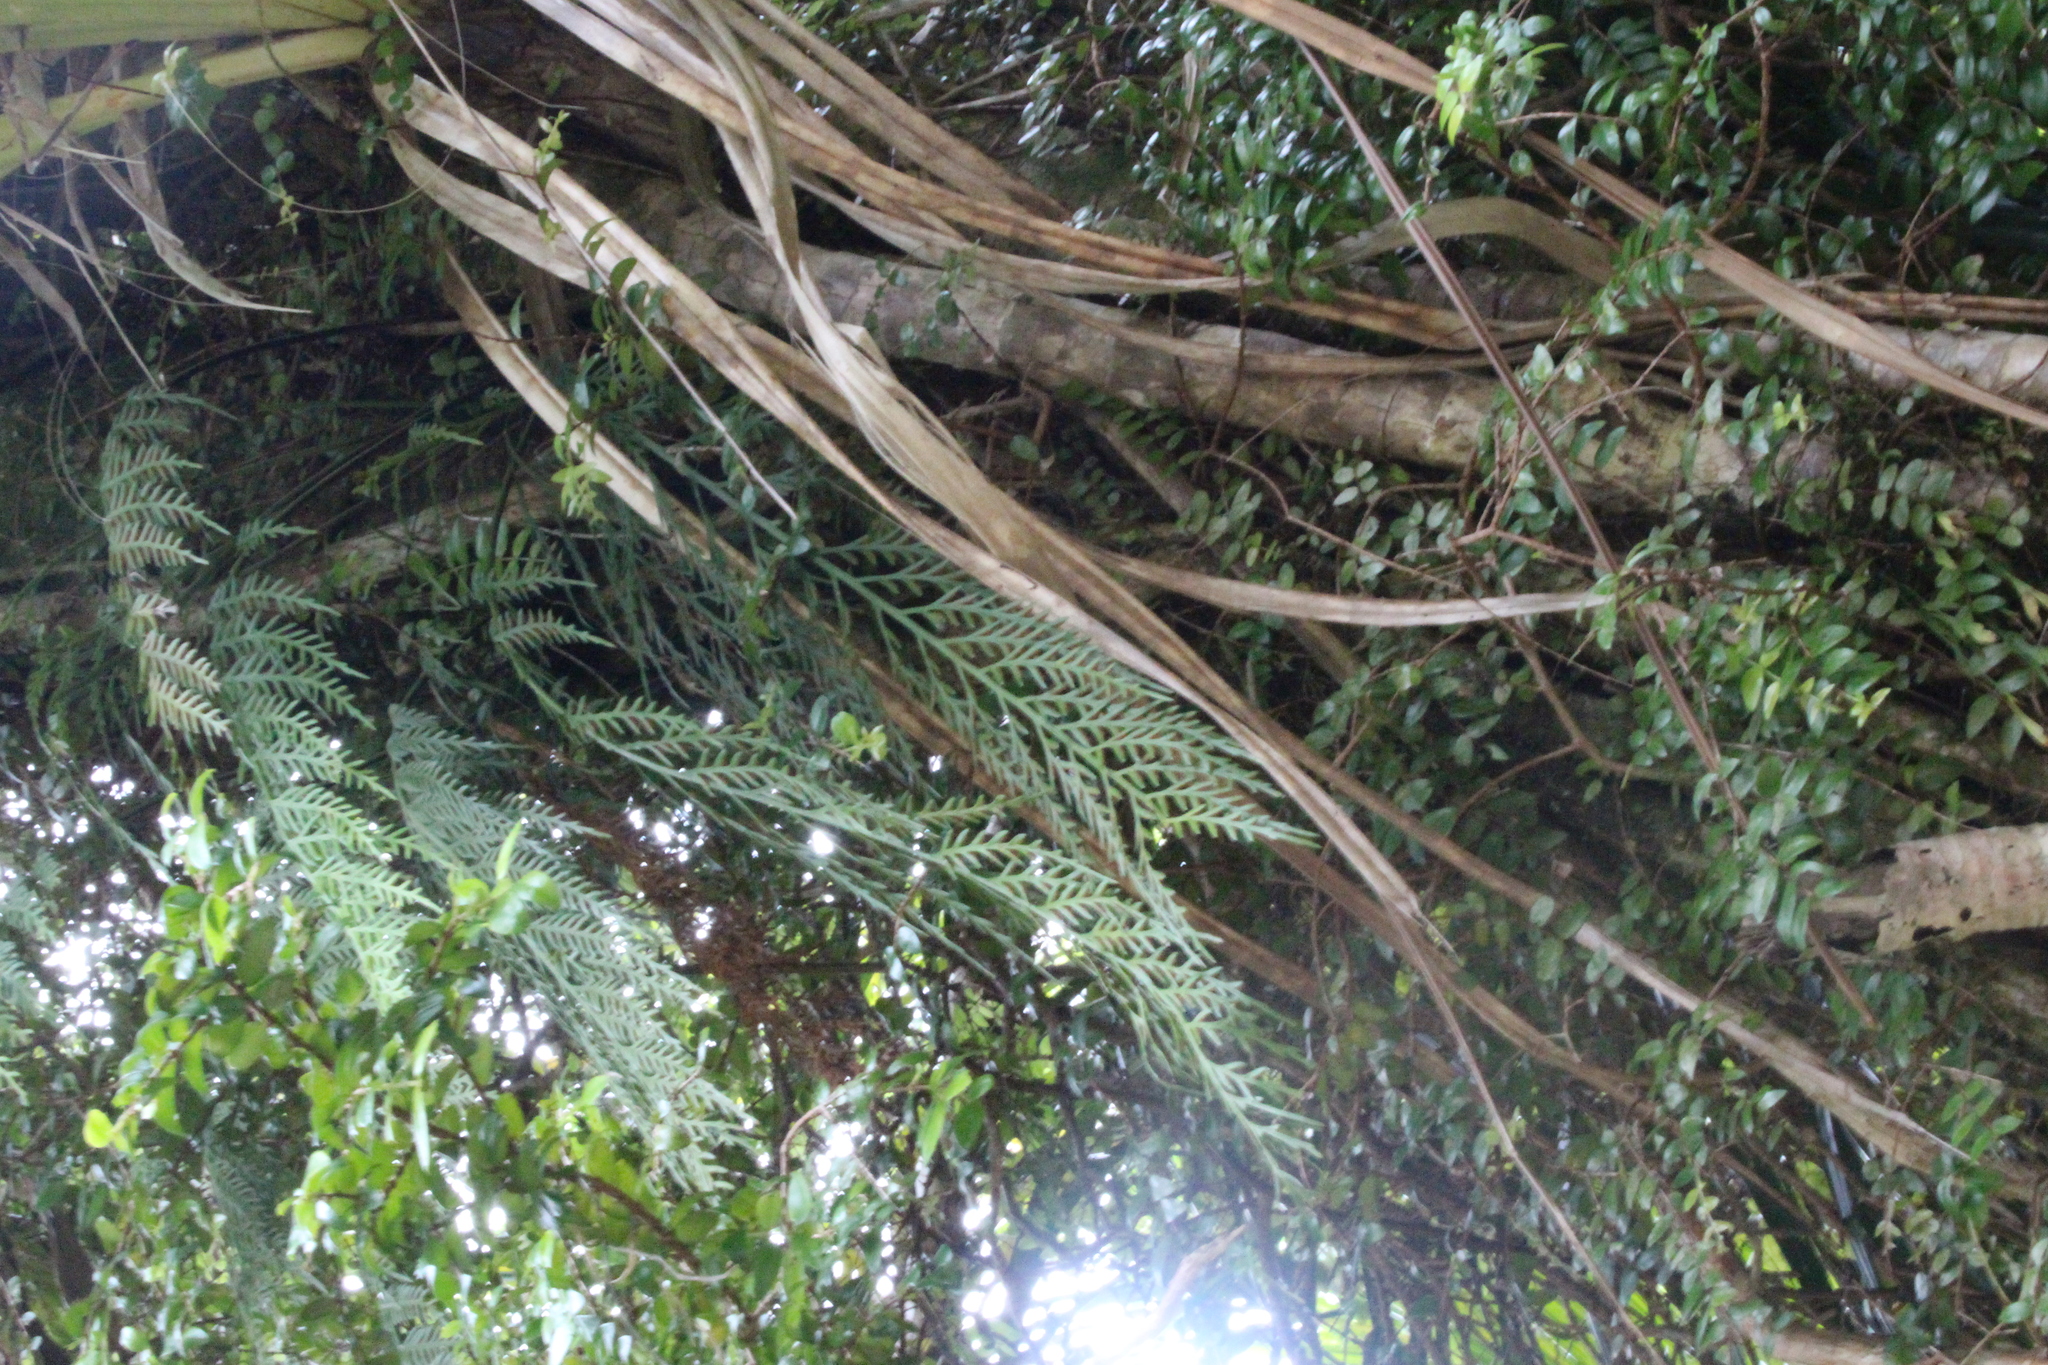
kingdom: Plantae
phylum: Tracheophyta
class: Polypodiopsida
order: Polypodiales
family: Aspleniaceae
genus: Asplenium
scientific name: Asplenium flaccidum
